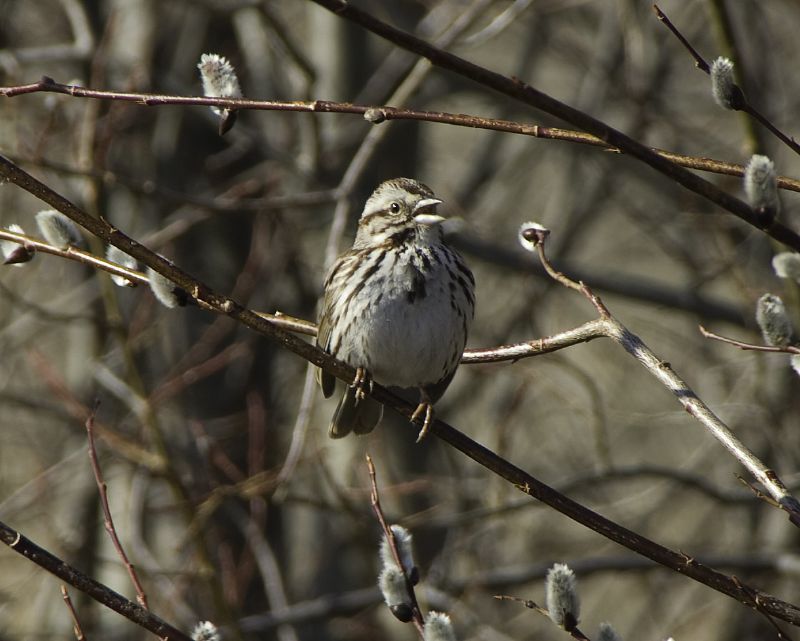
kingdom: Animalia
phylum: Chordata
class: Aves
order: Passeriformes
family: Passerellidae
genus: Melospiza
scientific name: Melospiza melodia
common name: Song sparrow
